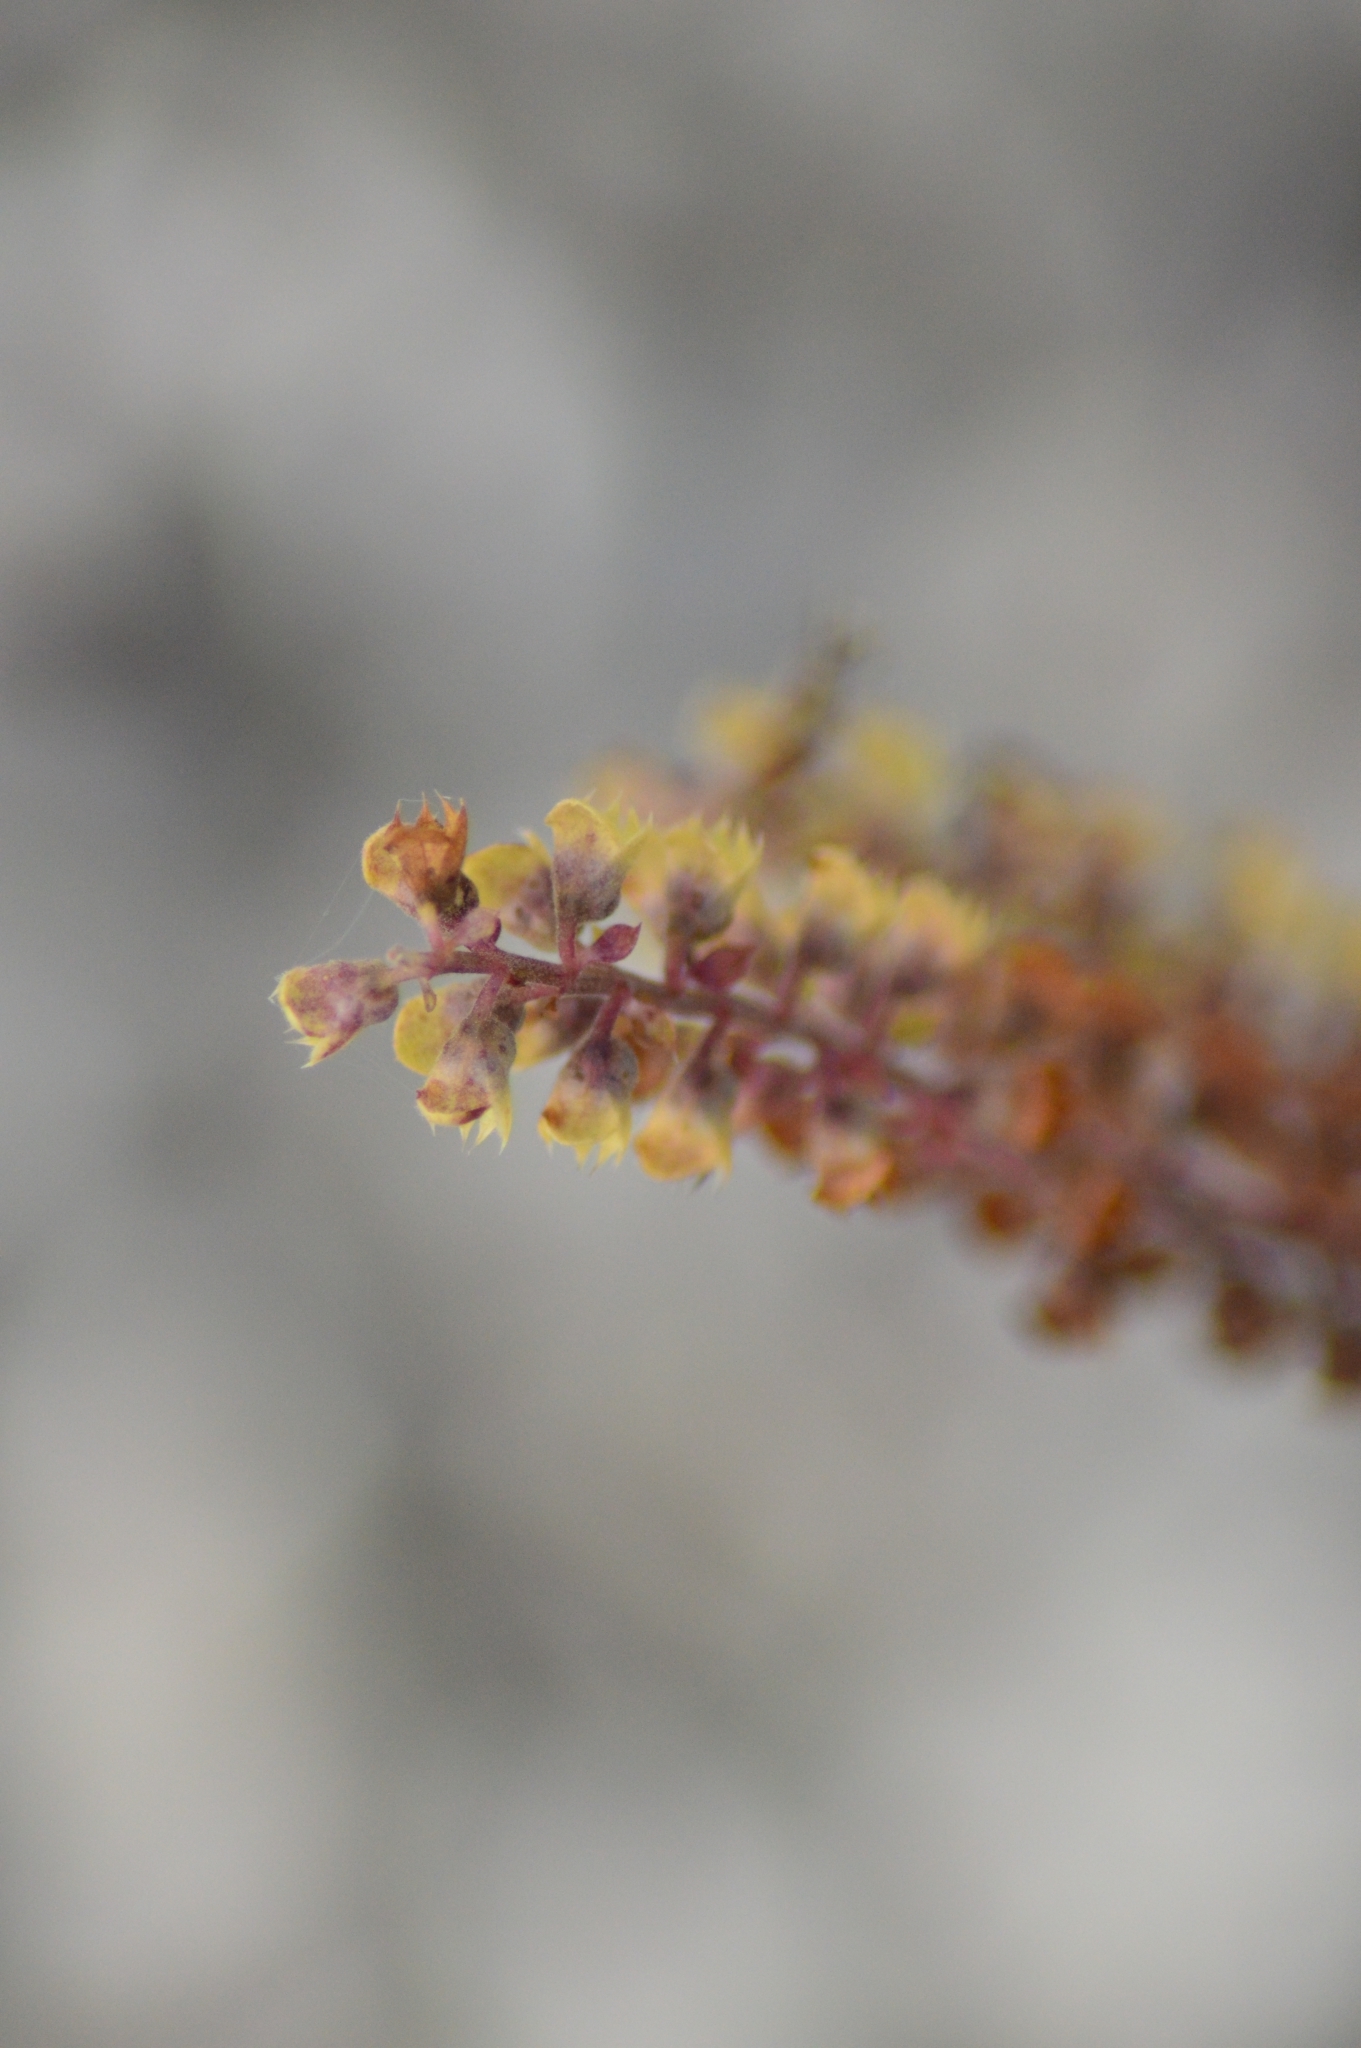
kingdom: Plantae
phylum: Tracheophyta
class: Magnoliopsida
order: Lamiales
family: Lamiaceae
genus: Teucrium
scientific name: Teucrium scorodonia
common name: Woodland germander
